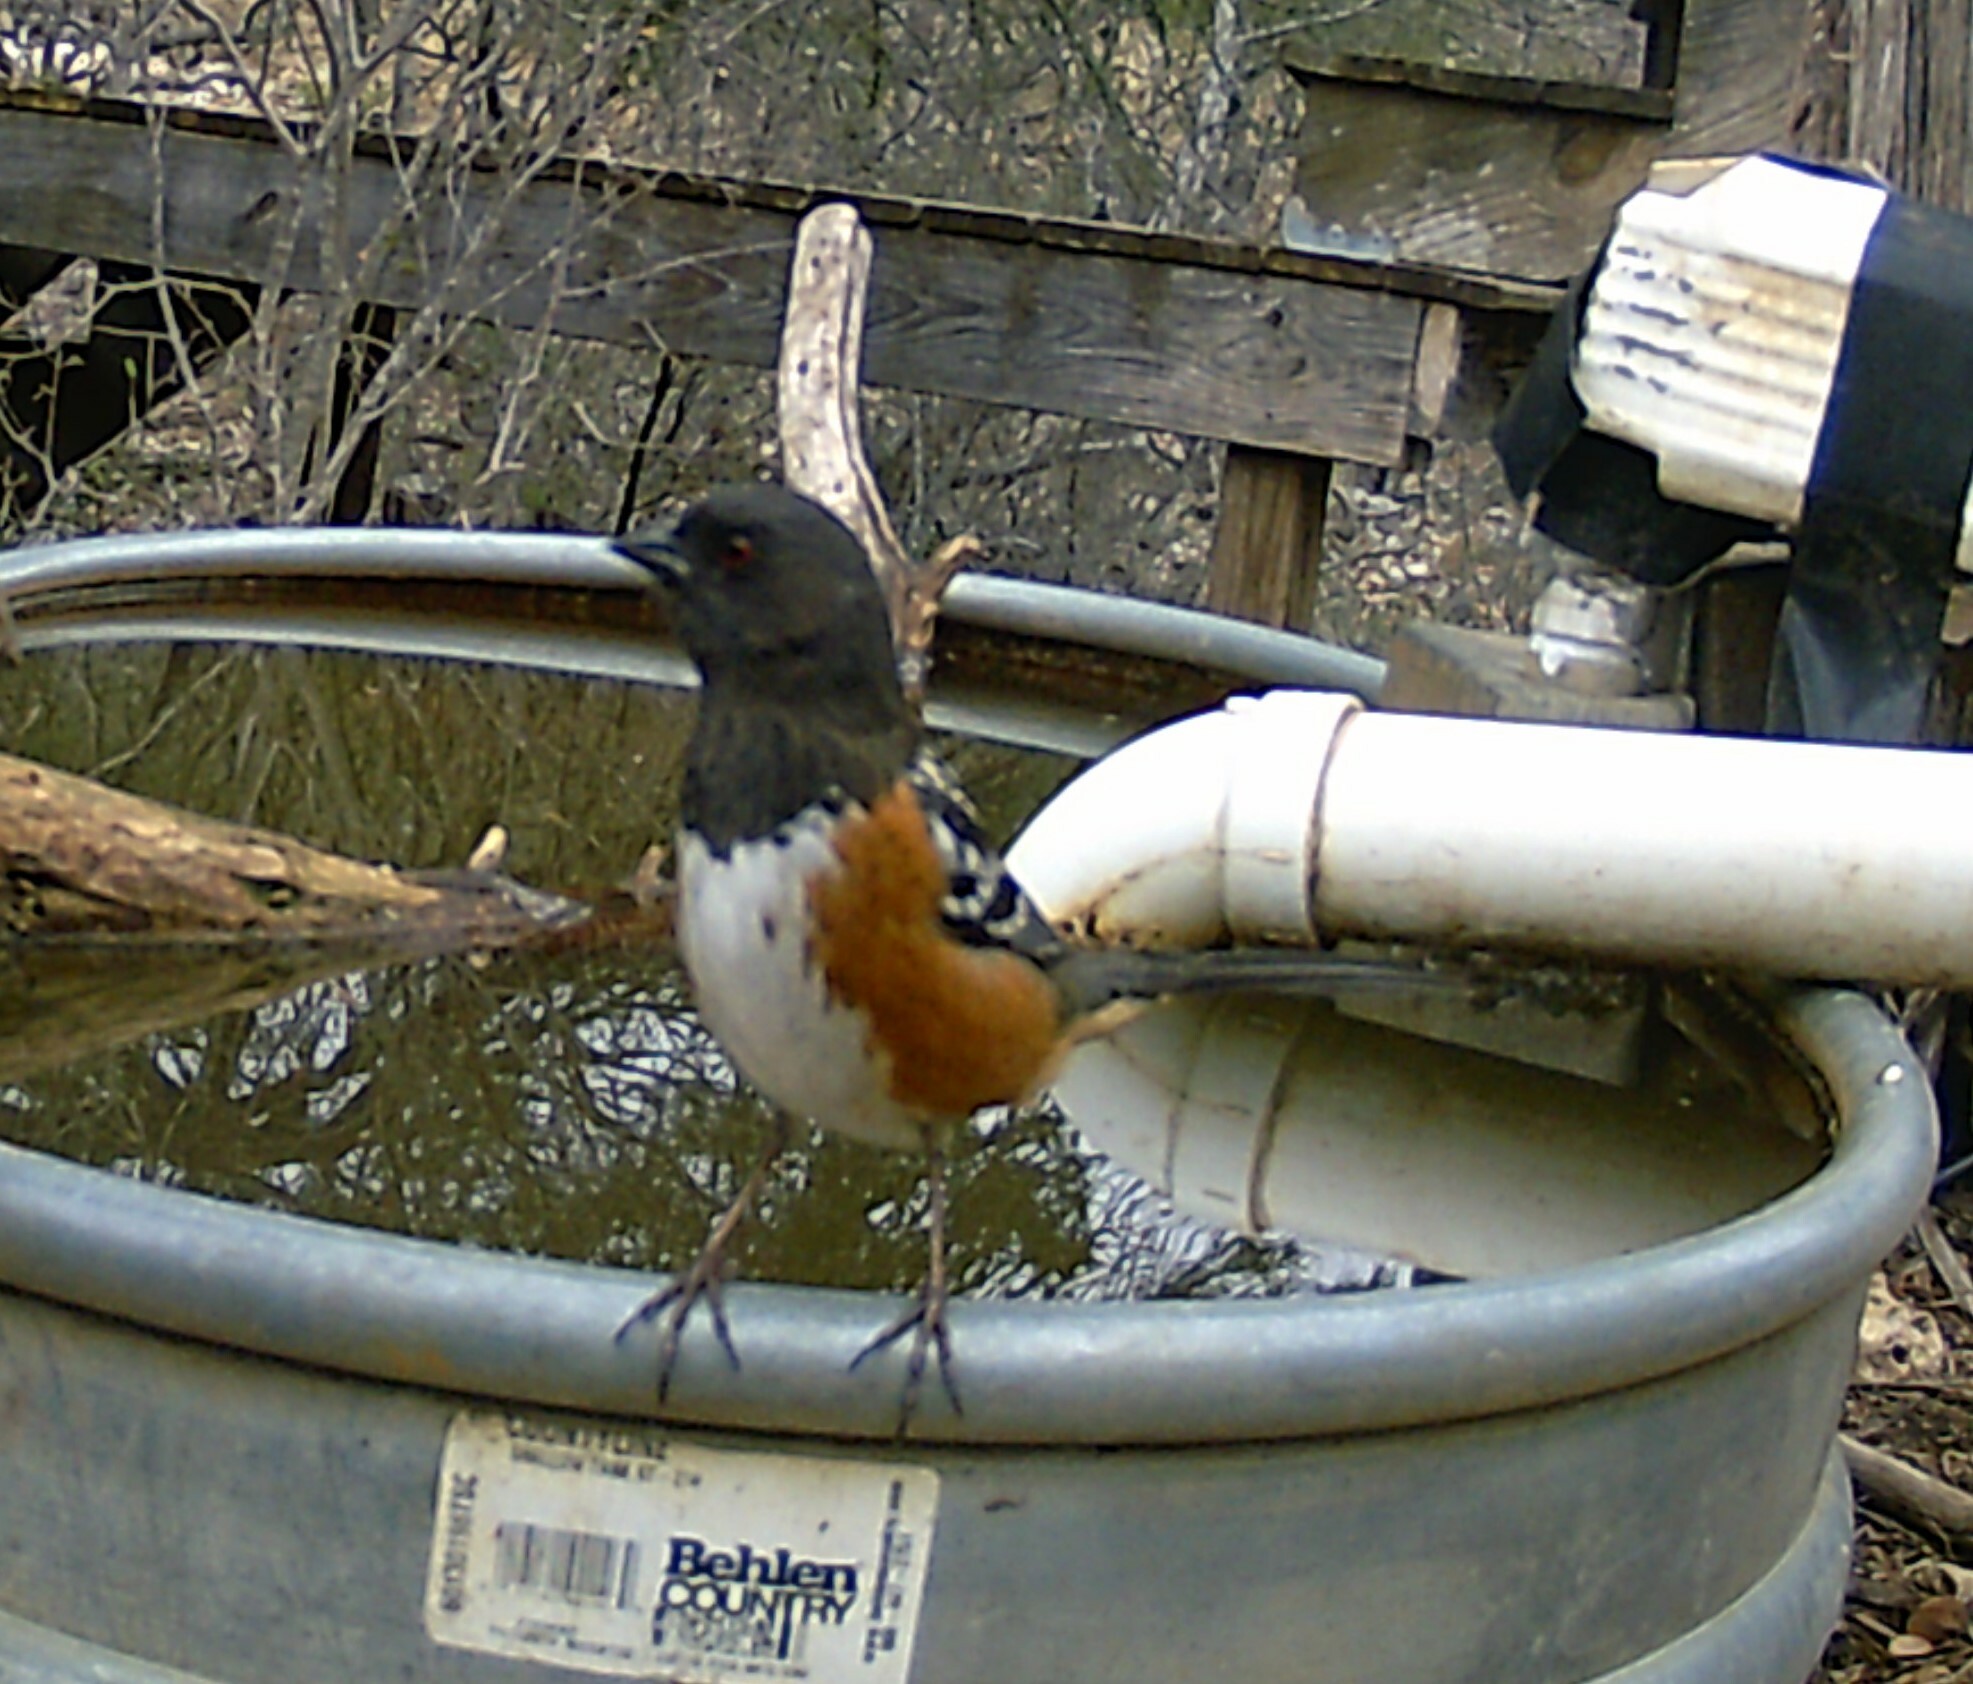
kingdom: Animalia
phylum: Chordata
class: Aves
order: Passeriformes
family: Passerellidae
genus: Pipilo
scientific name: Pipilo maculatus
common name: Spotted towhee
